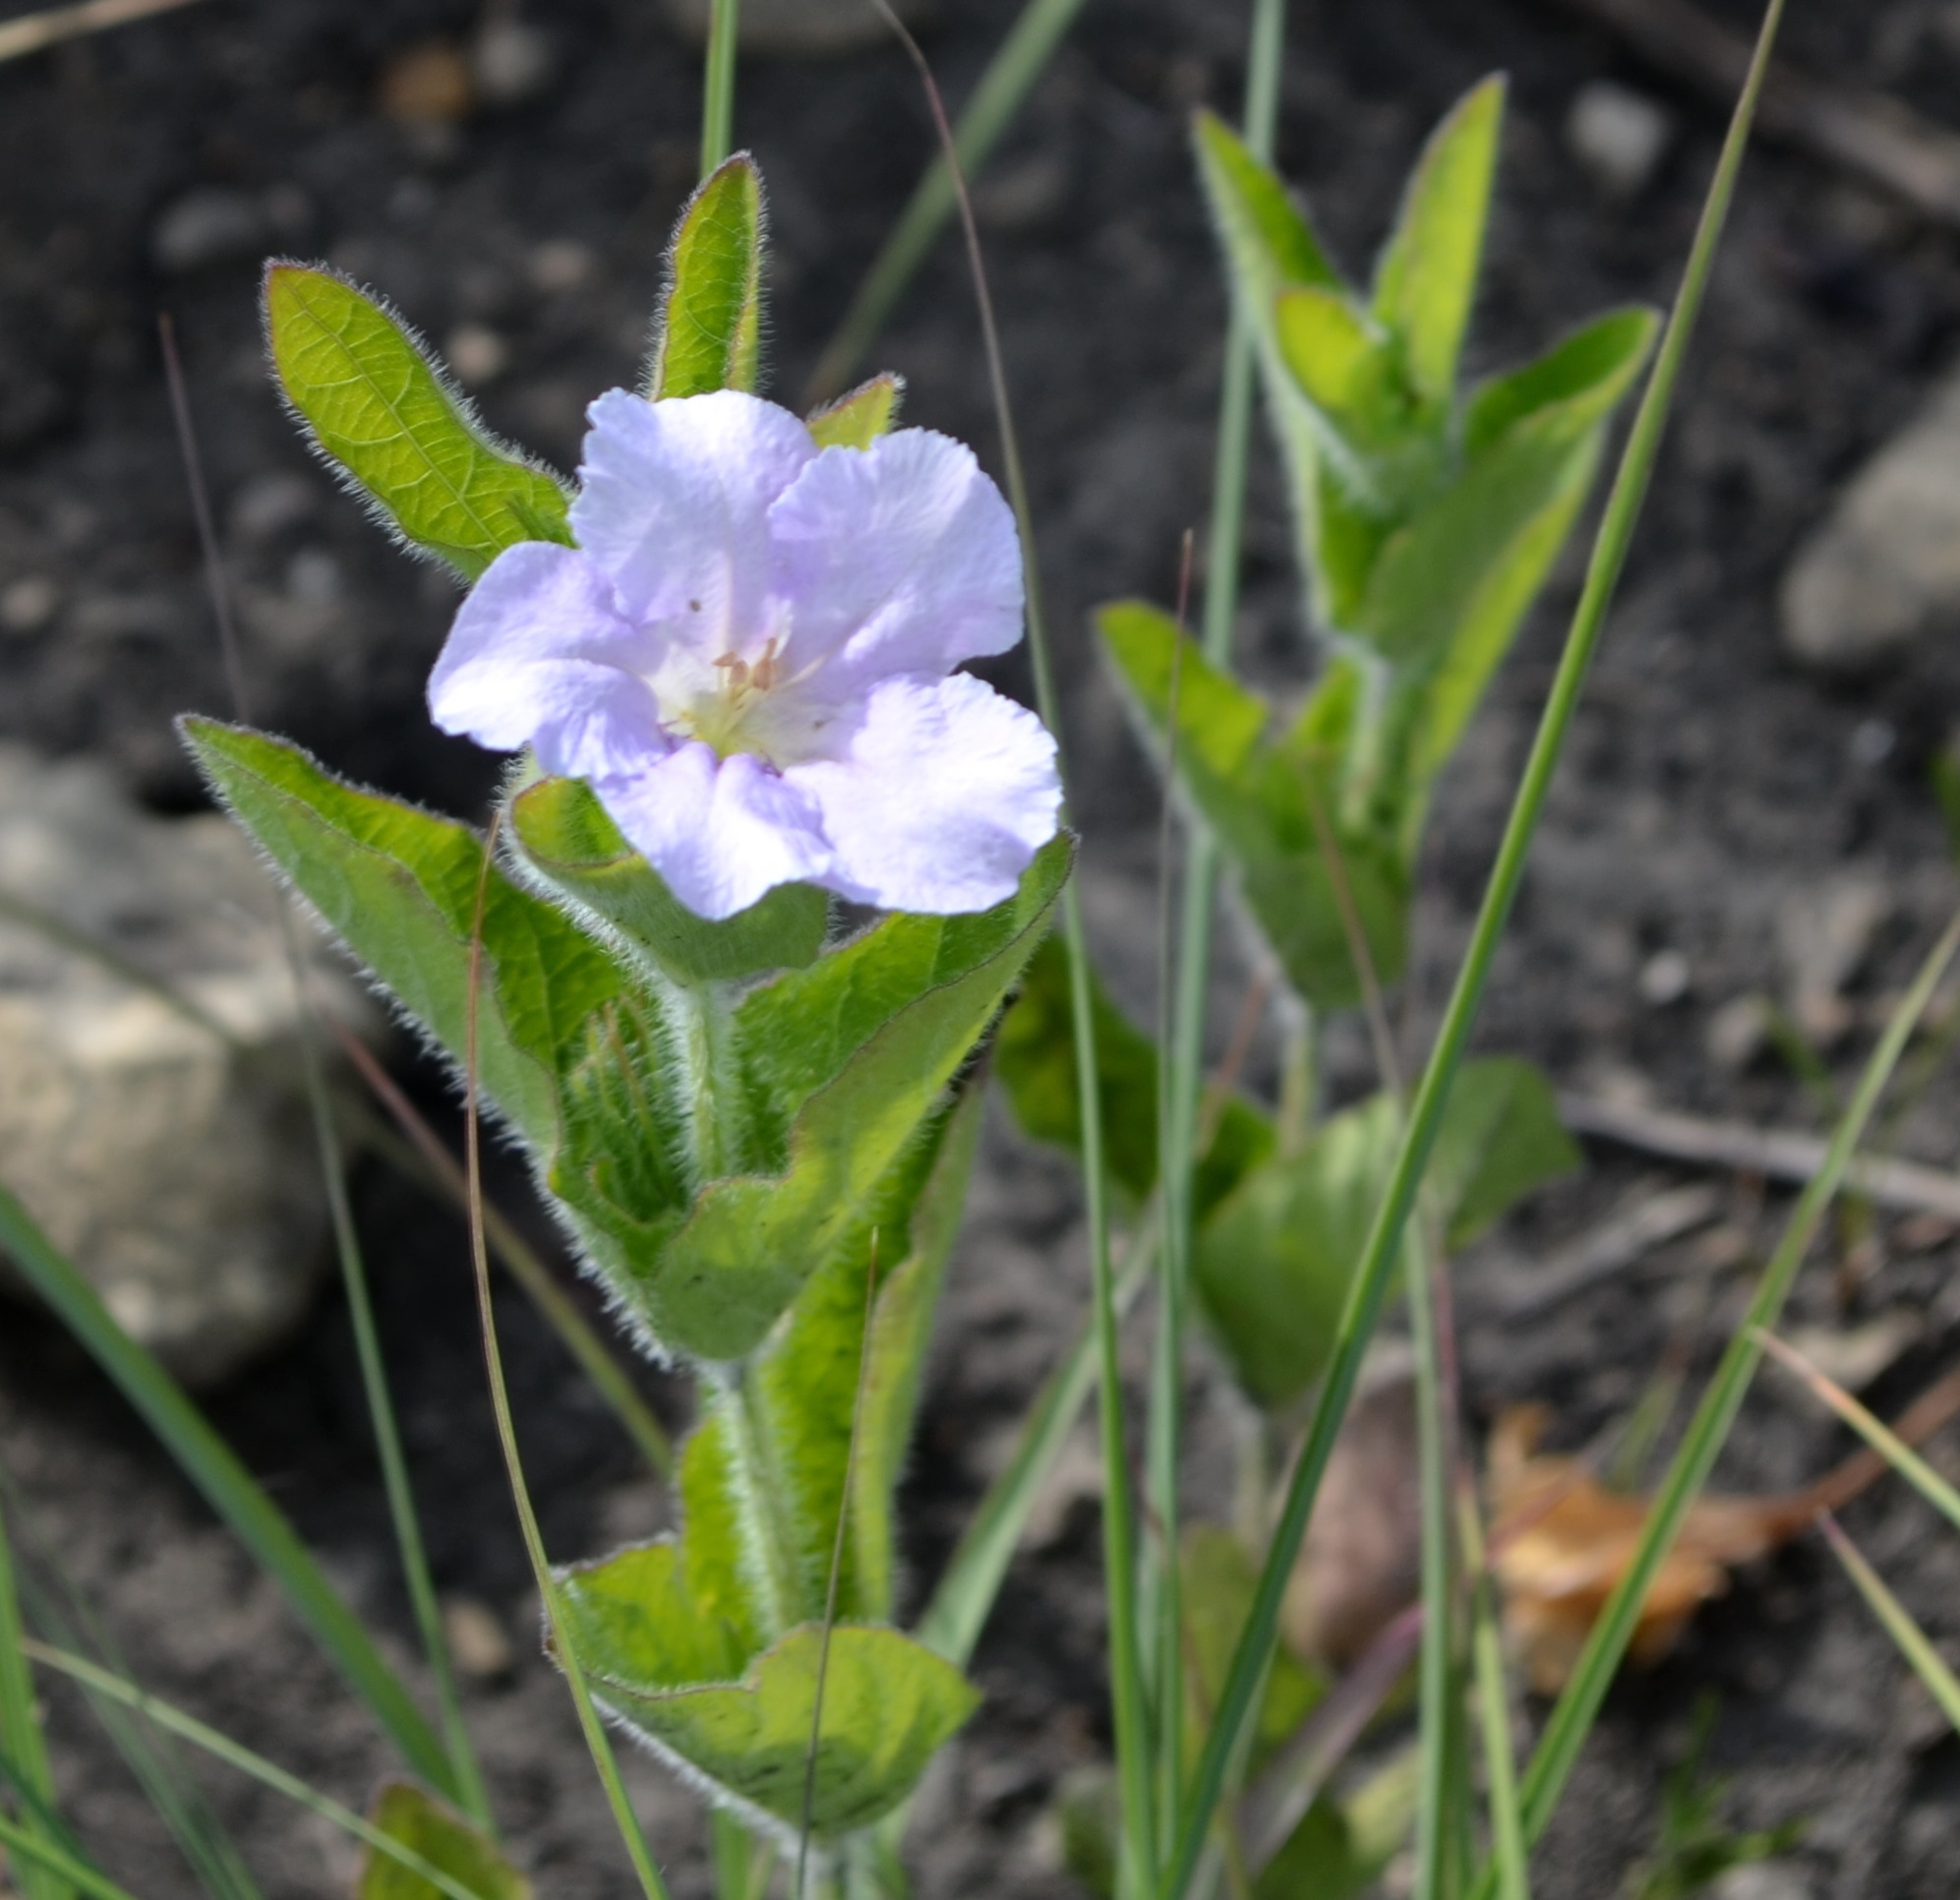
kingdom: Plantae
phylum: Tracheophyta
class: Magnoliopsida
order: Lamiales
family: Acanthaceae
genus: Ruellia
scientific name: Ruellia humilis
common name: Fringe-leaf ruellia
